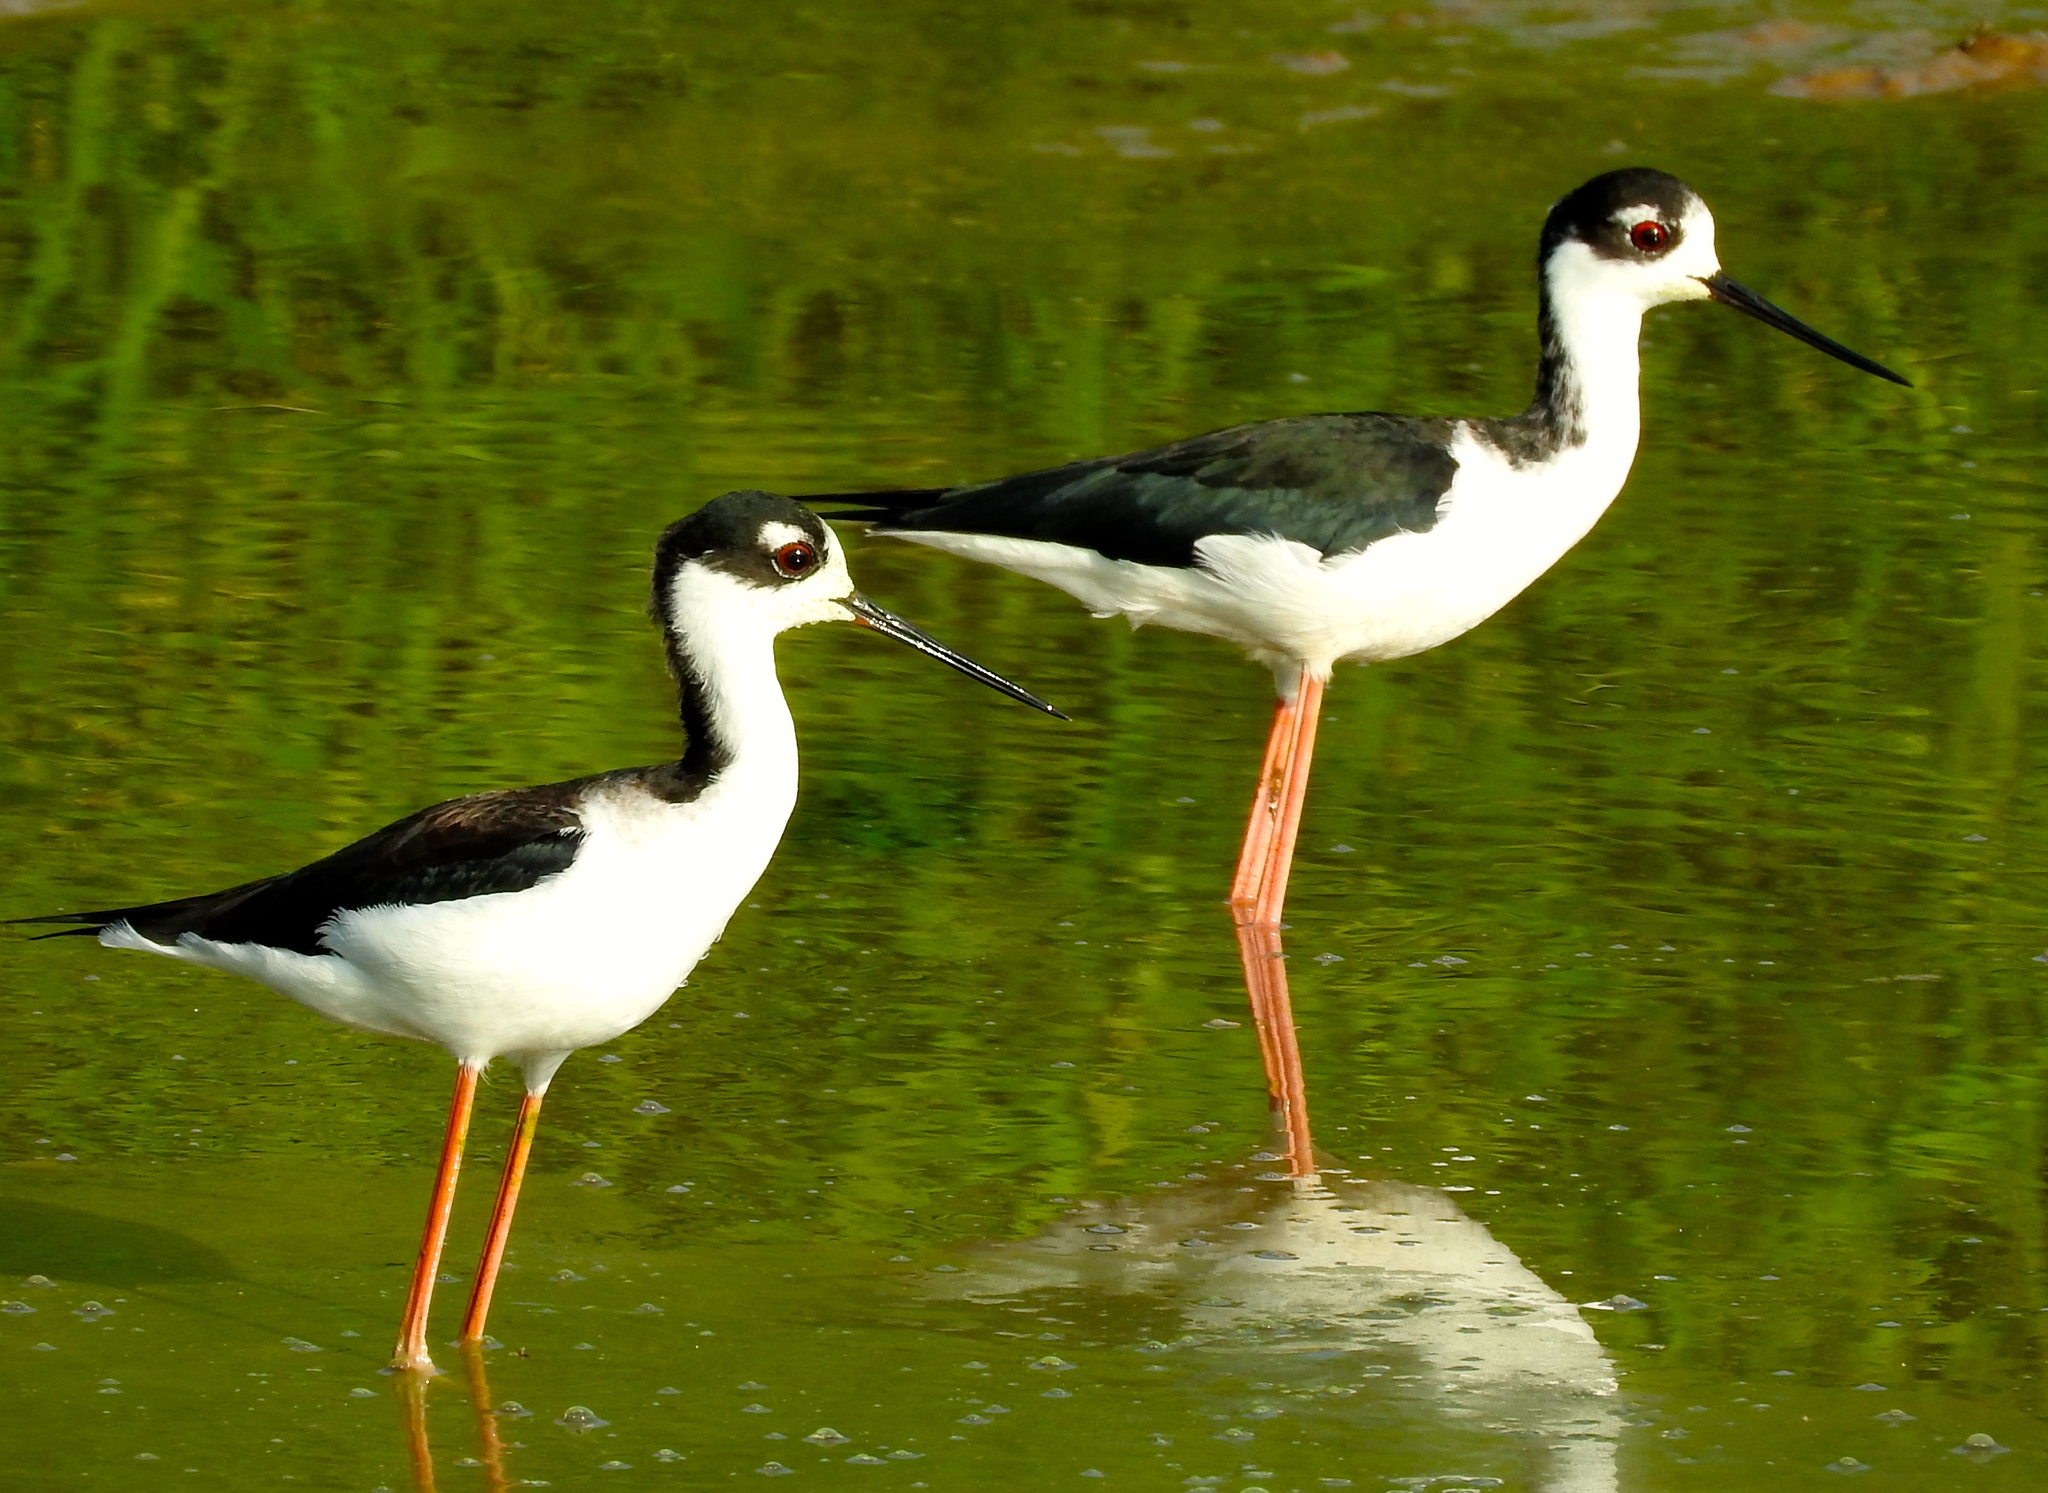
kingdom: Animalia
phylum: Chordata
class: Aves
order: Charadriiformes
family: Recurvirostridae
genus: Himantopus
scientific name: Himantopus mexicanus
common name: Black-necked stilt
